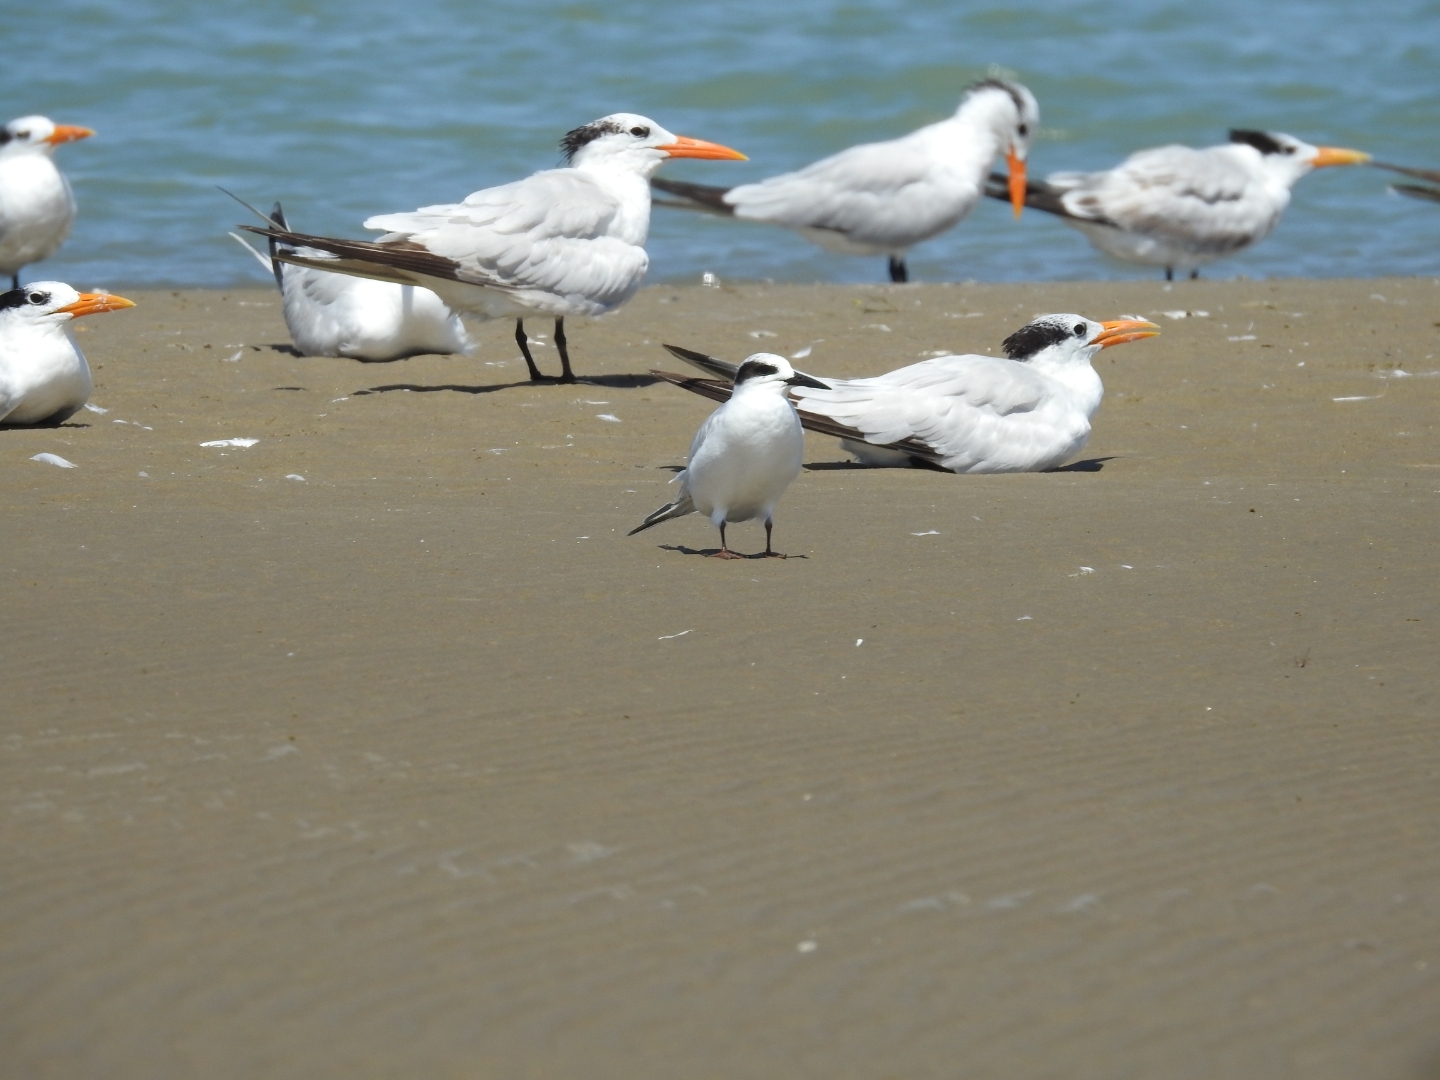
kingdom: Animalia
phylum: Chordata
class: Aves
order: Charadriiformes
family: Laridae
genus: Sterna
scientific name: Sterna forsteri
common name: Forster's tern
